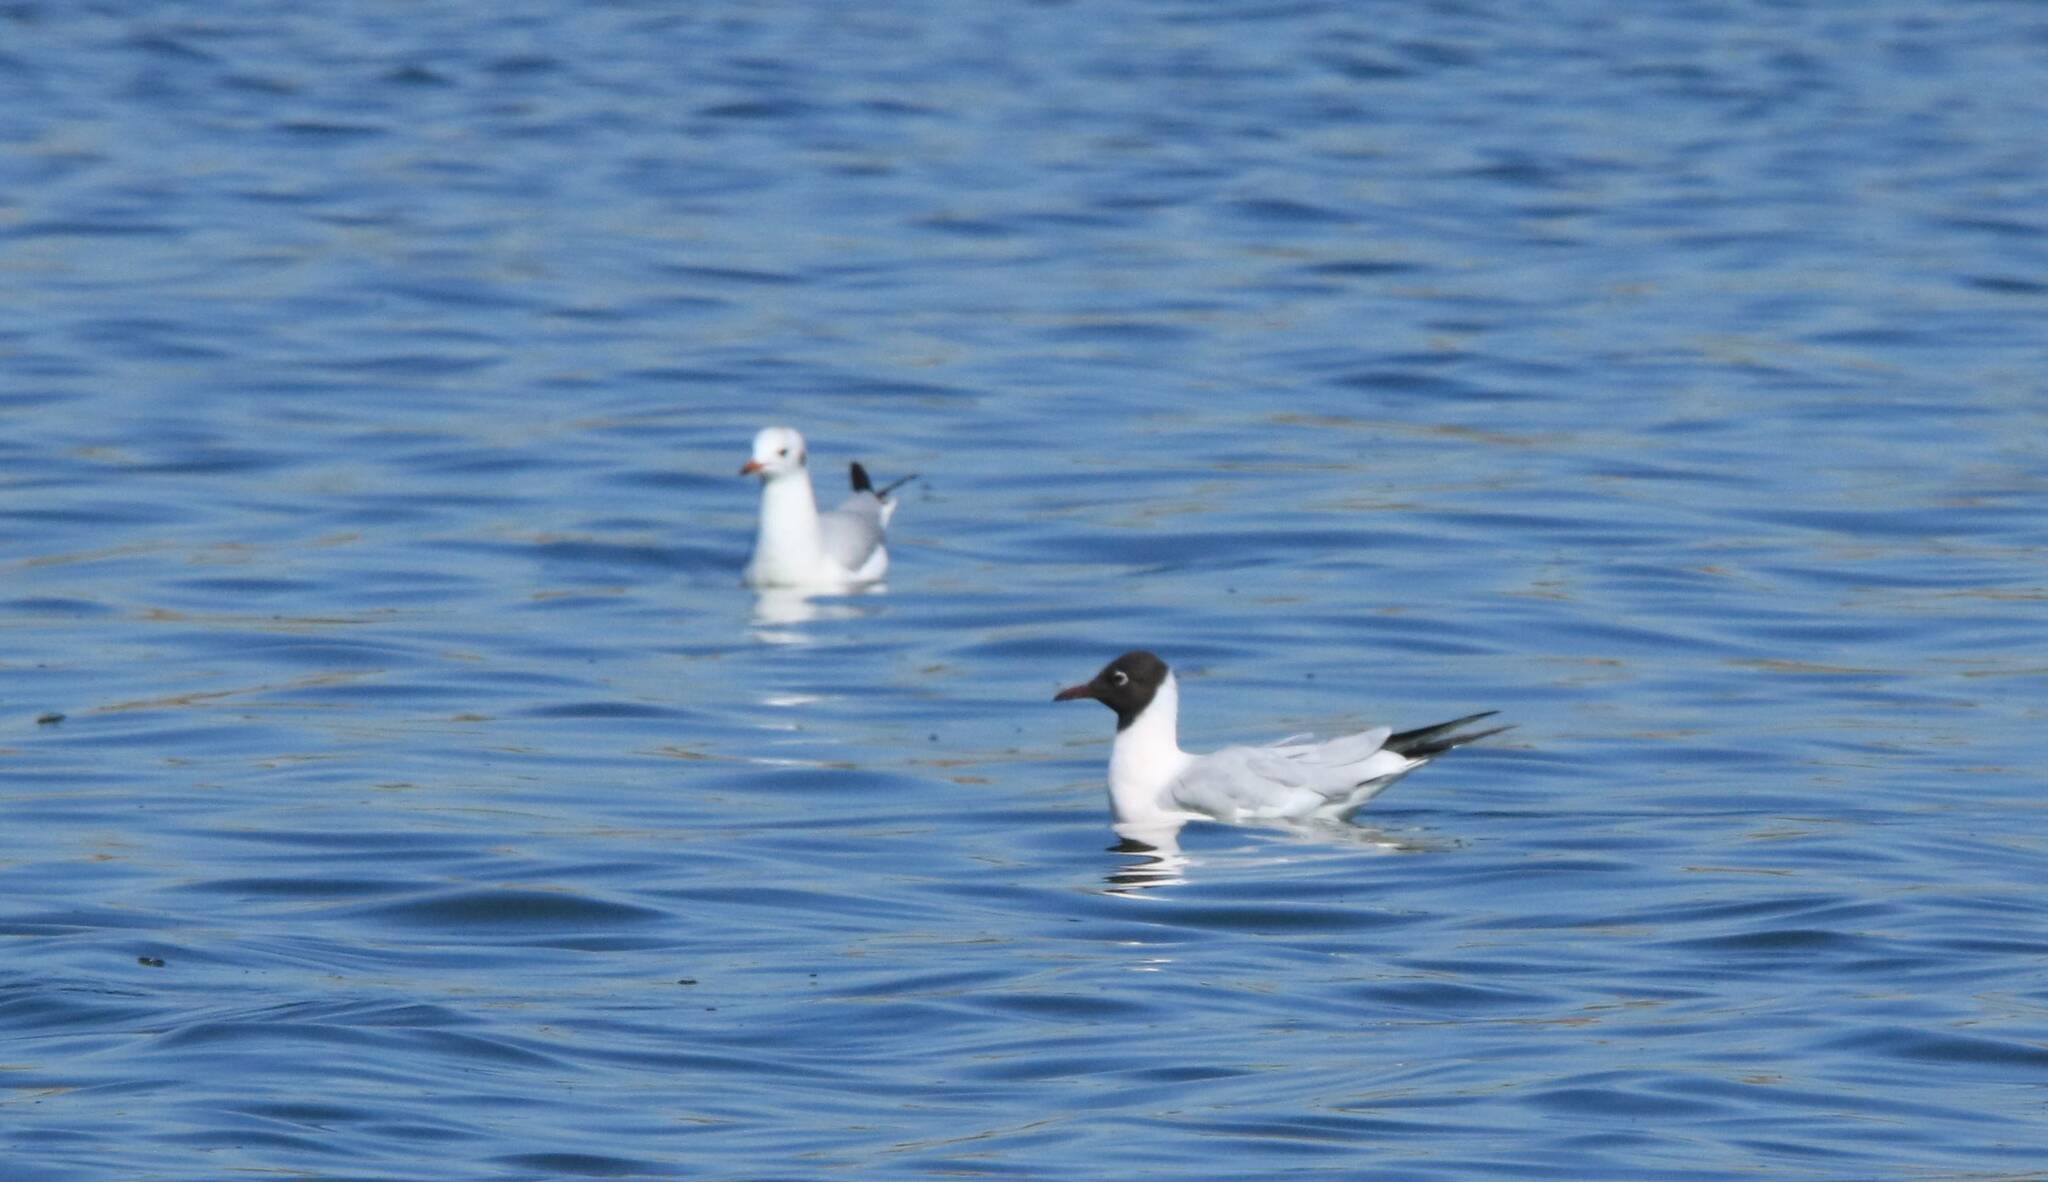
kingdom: Animalia
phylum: Chordata
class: Aves
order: Charadriiformes
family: Laridae
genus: Chroicocephalus
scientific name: Chroicocephalus ridibundus
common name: Black-headed gull
